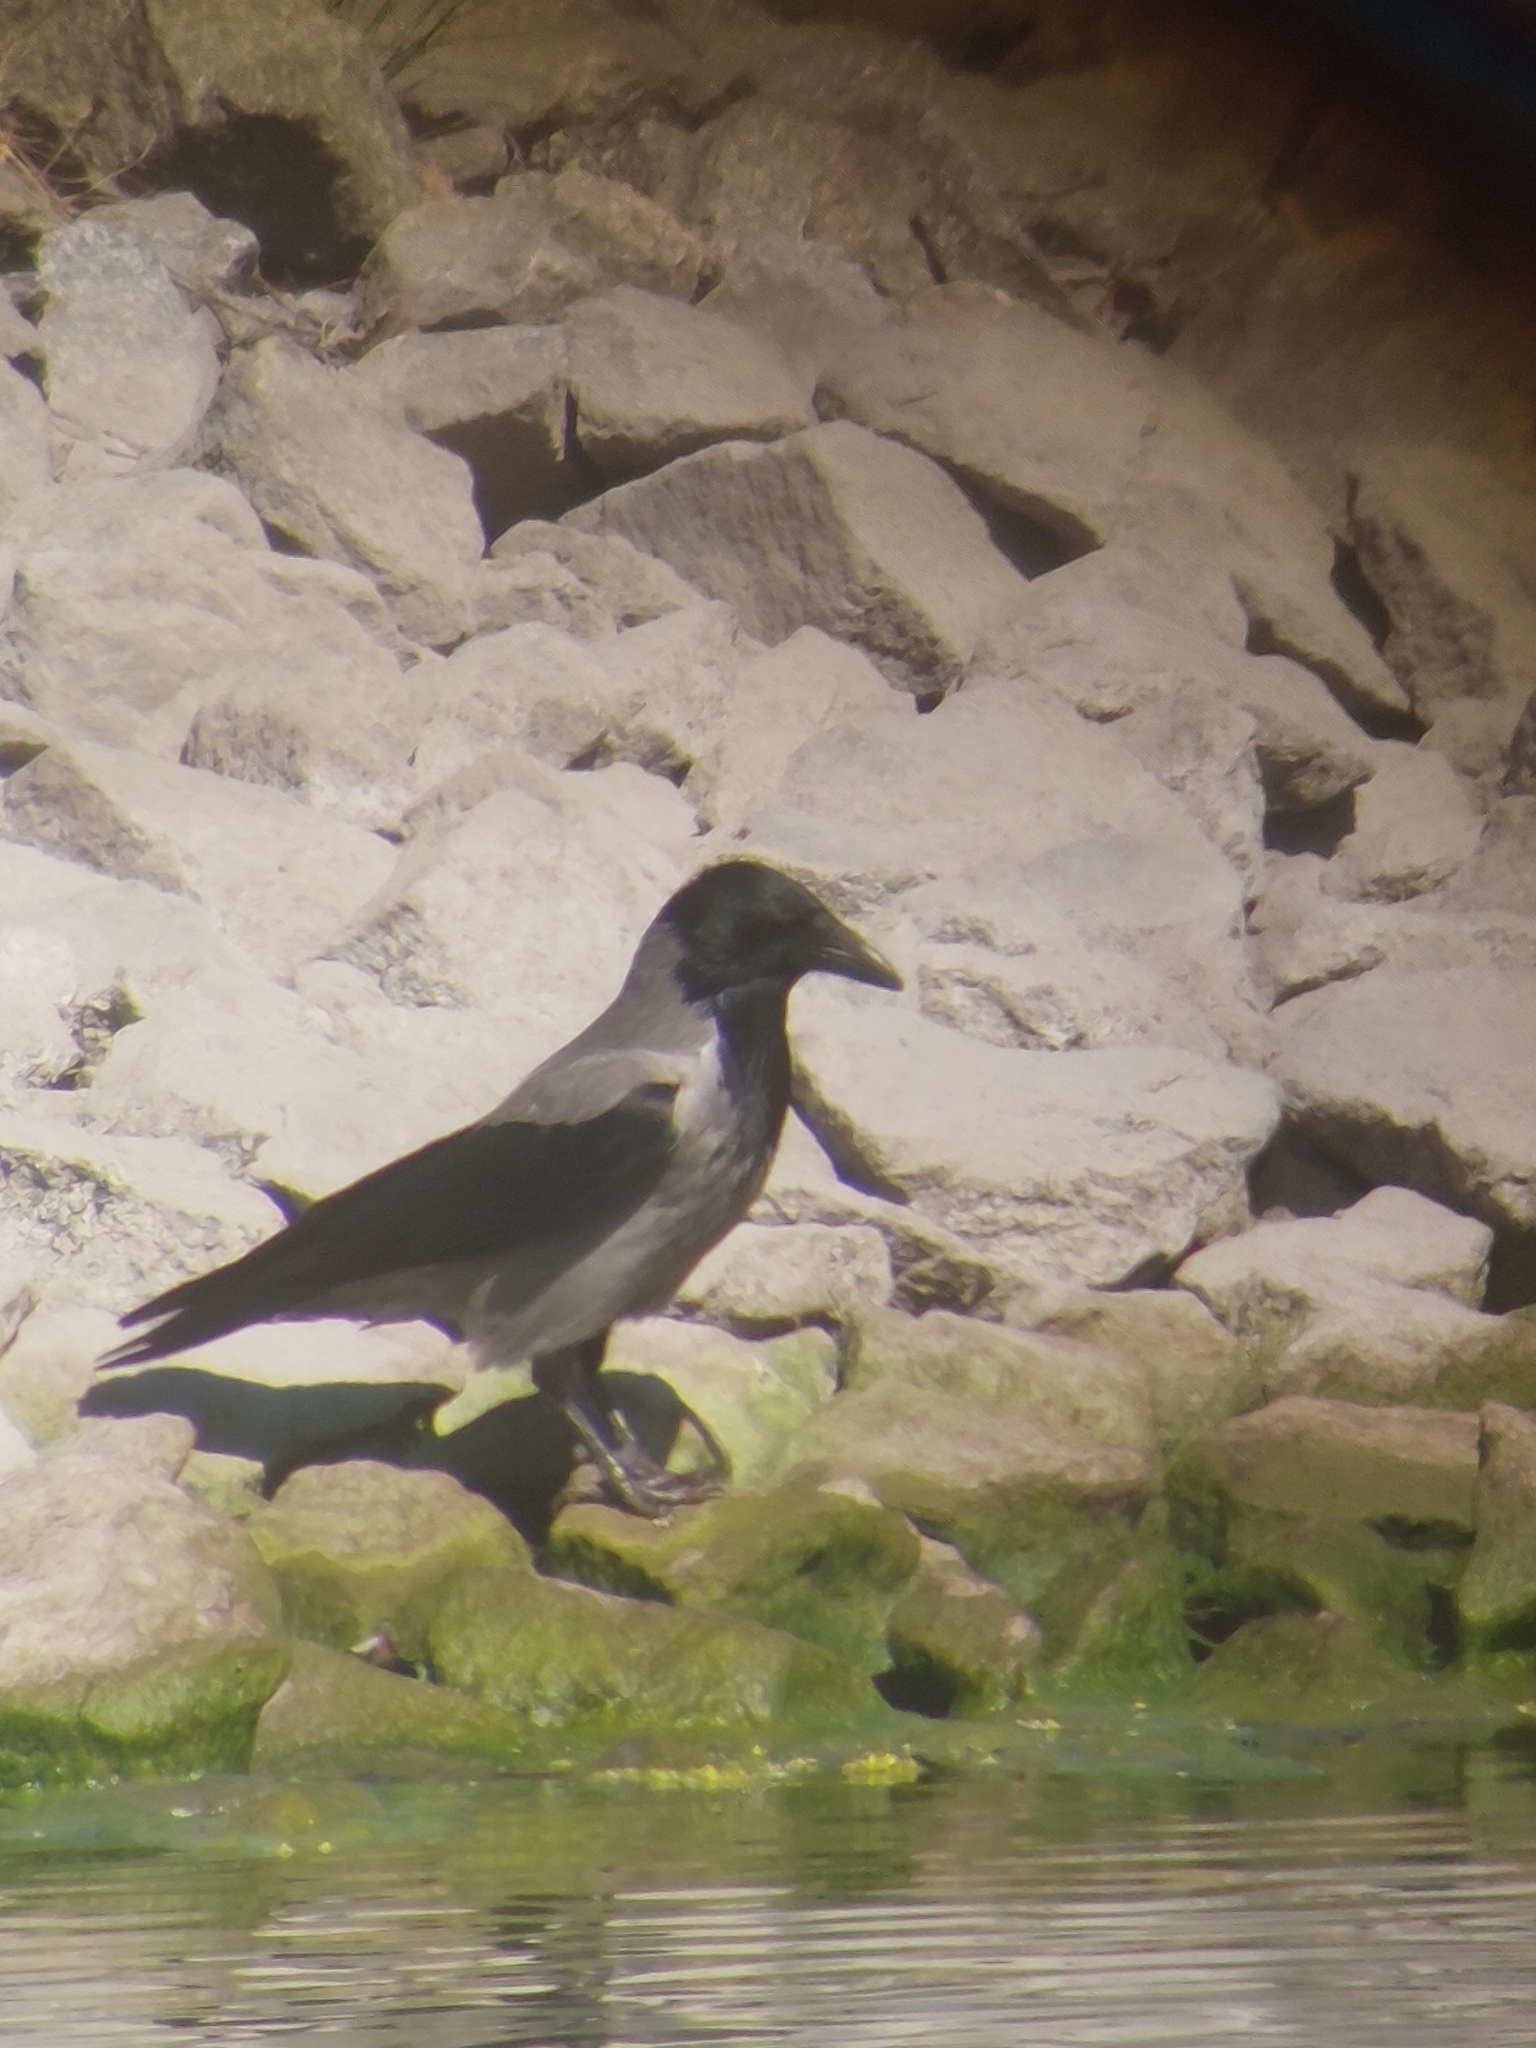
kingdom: Animalia
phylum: Chordata
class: Aves
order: Passeriformes
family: Corvidae
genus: Corvus
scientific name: Corvus cornix
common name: Hooded crow
